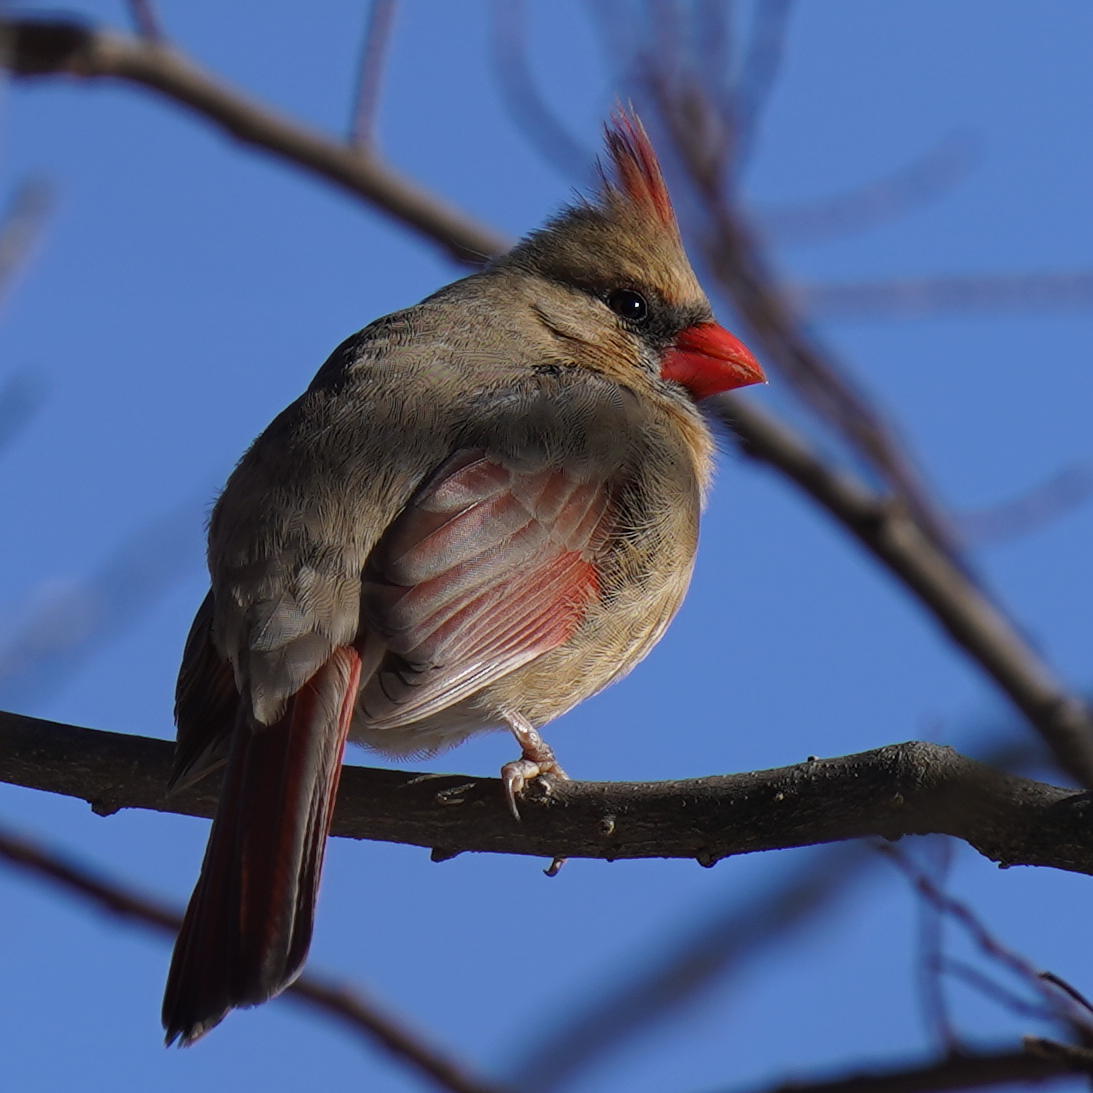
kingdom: Animalia
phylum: Chordata
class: Aves
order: Passeriformes
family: Cardinalidae
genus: Cardinalis
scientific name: Cardinalis cardinalis
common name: Northern cardinal
